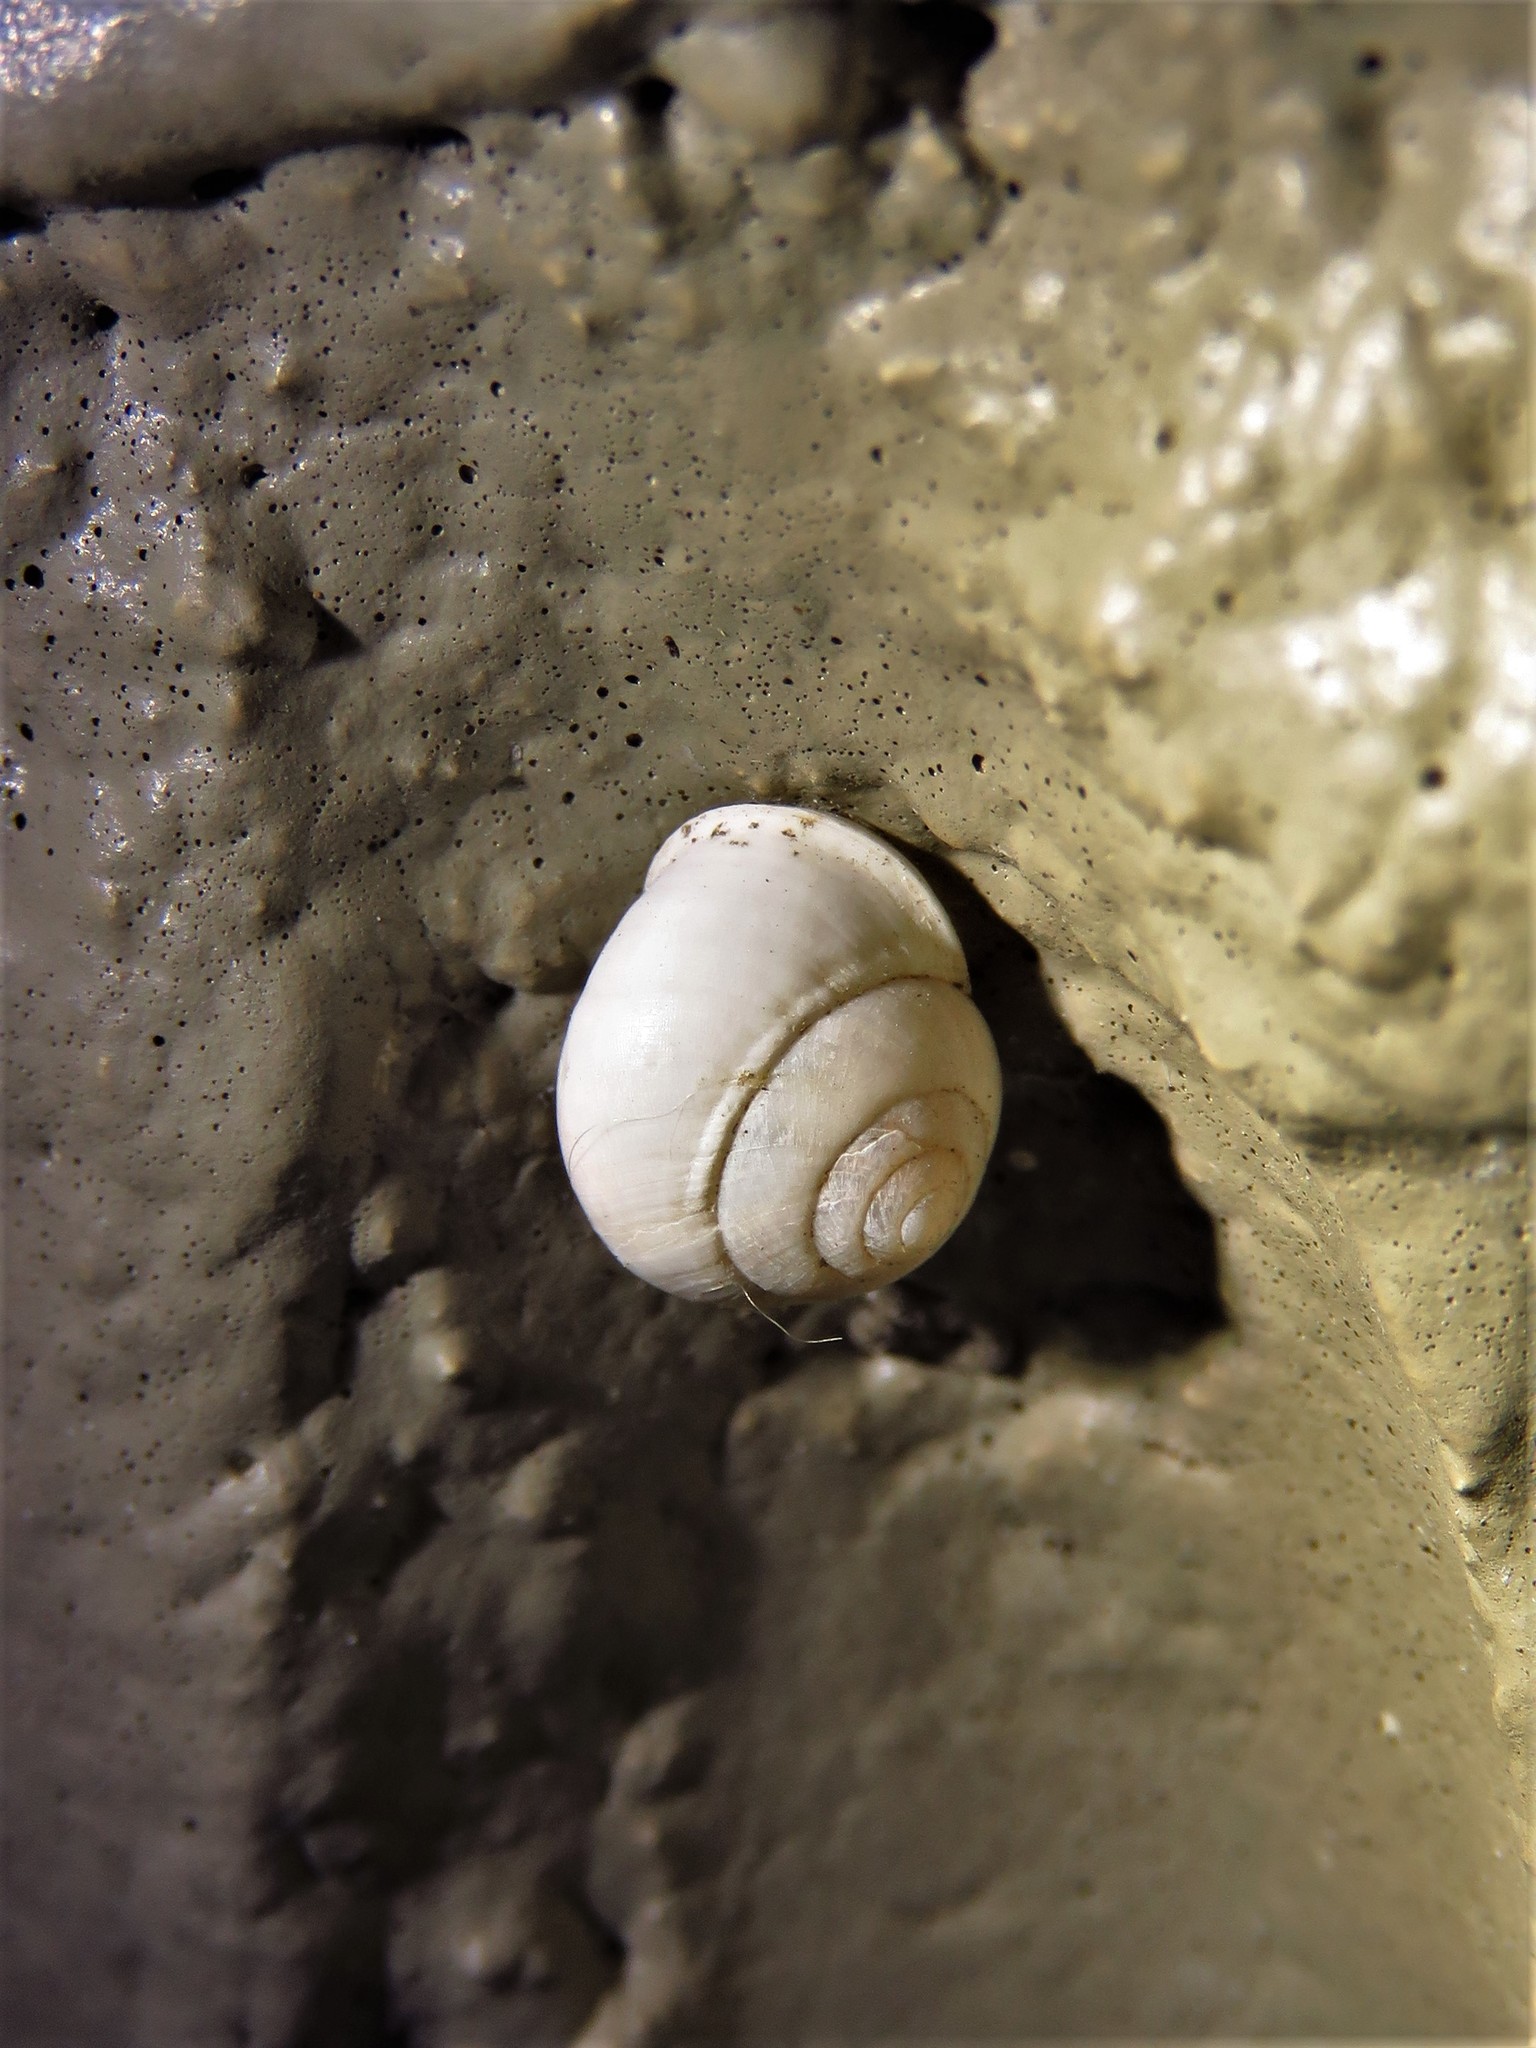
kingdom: Animalia
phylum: Mollusca
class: Gastropoda
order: Cycloneritida
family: Helicinidae
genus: Helicina
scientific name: Helicina orbiculata
